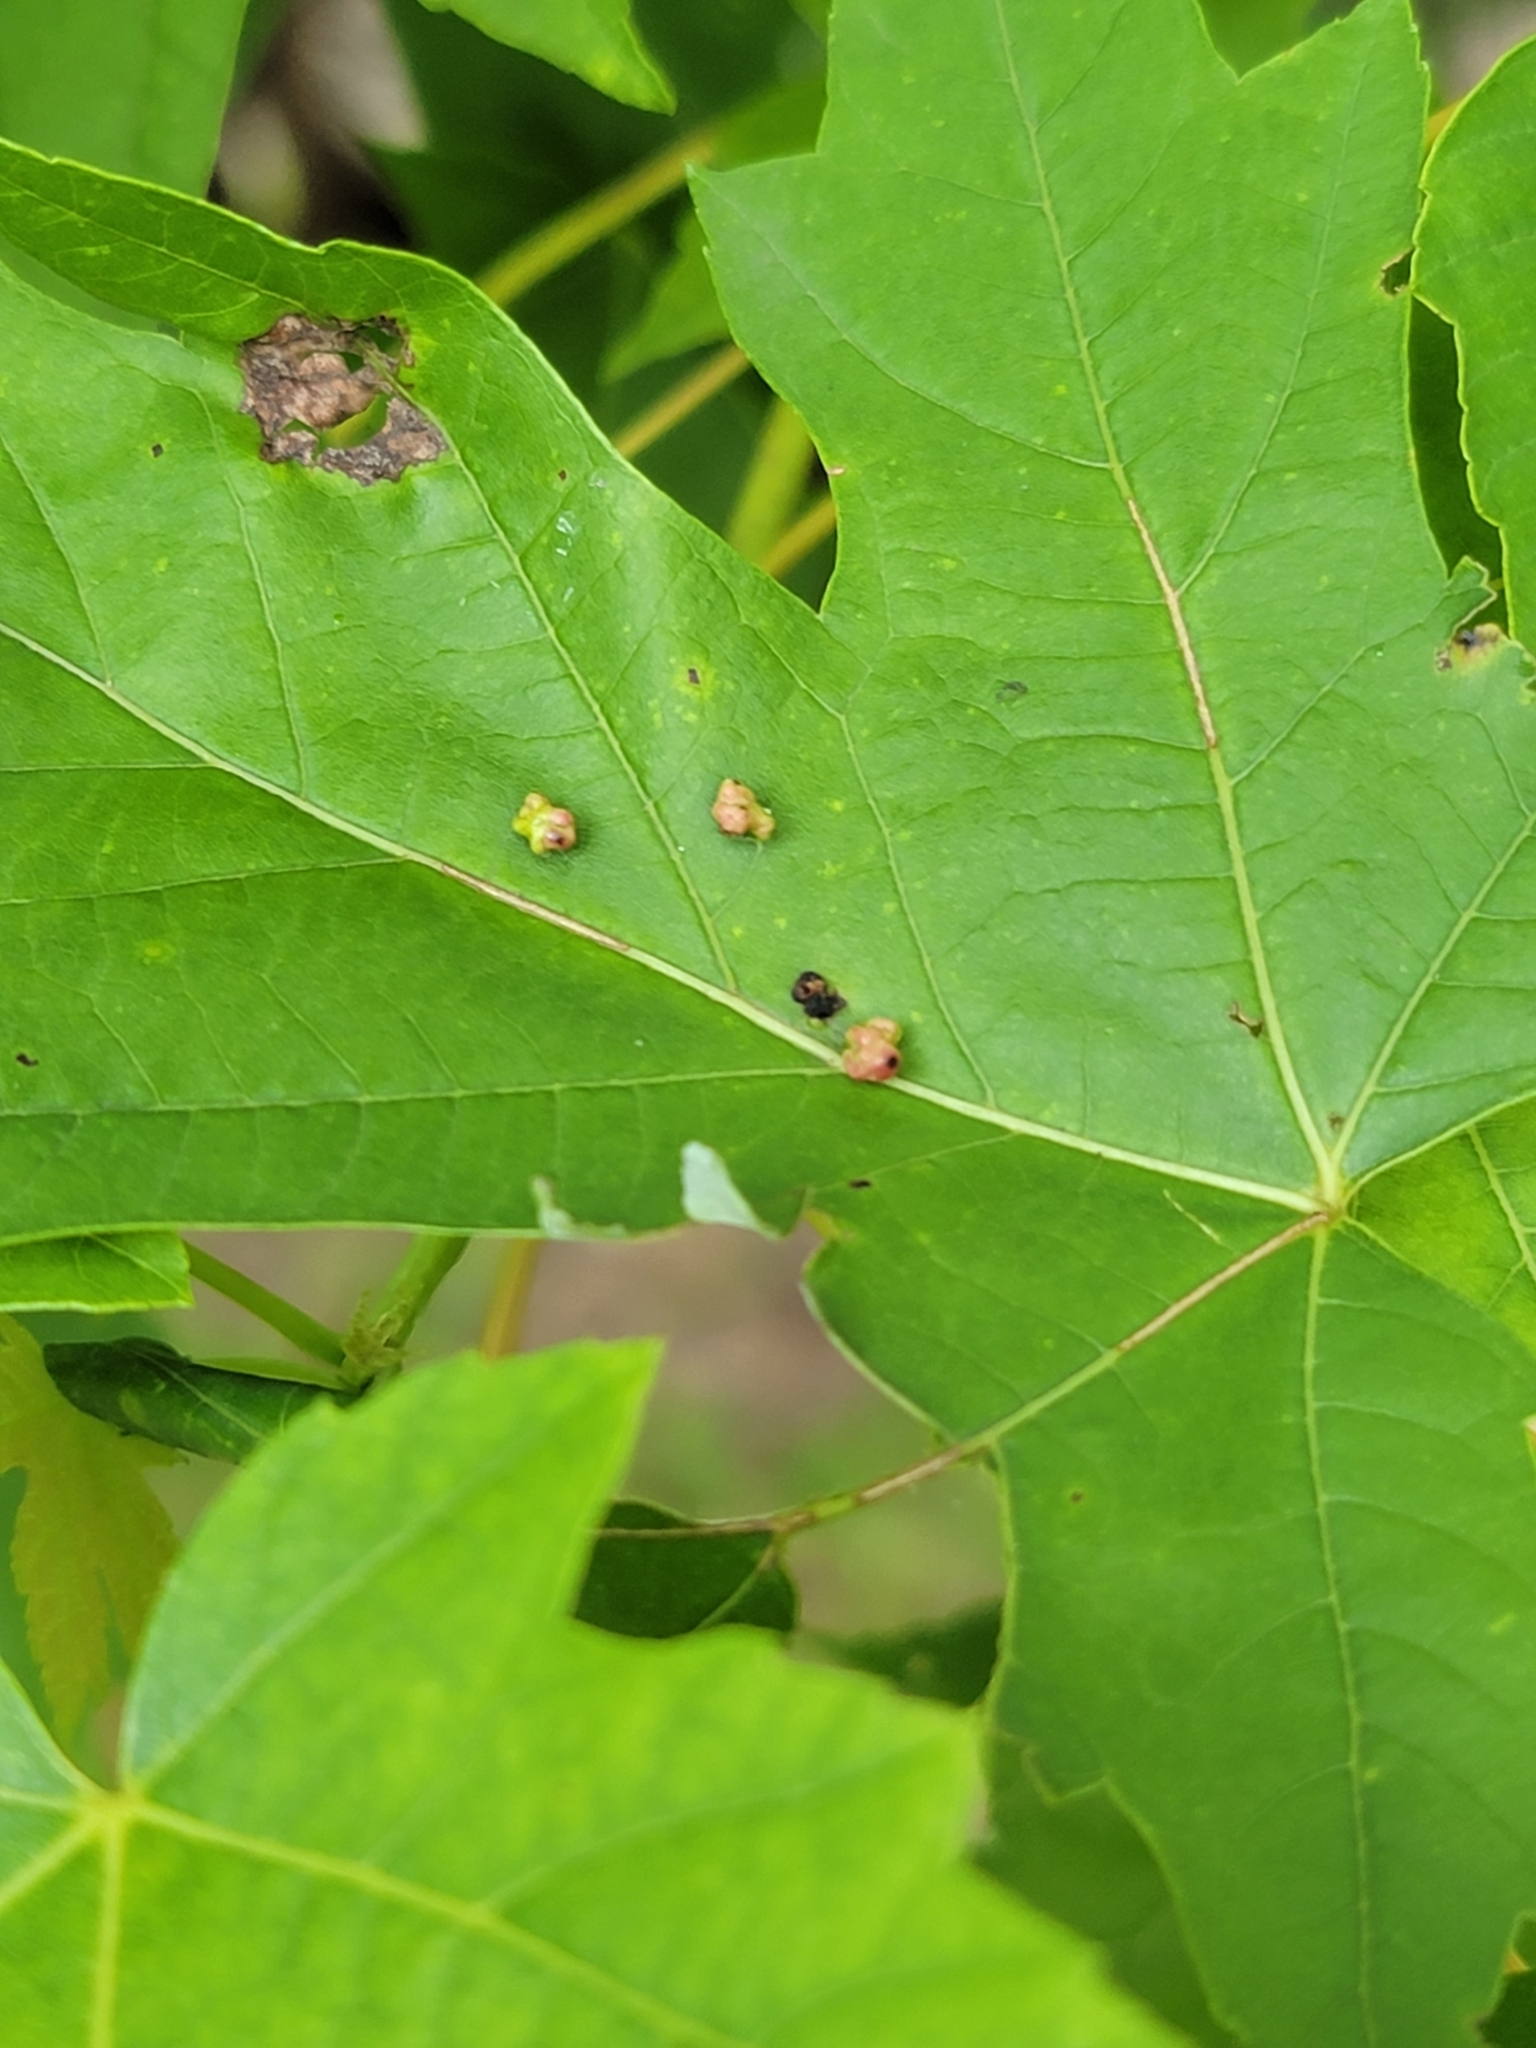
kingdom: Animalia
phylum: Arthropoda
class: Arachnida
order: Trombidiformes
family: Eriophyidae
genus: Vasates
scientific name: Vasates quadripedes
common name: Maple bladder gall mite
